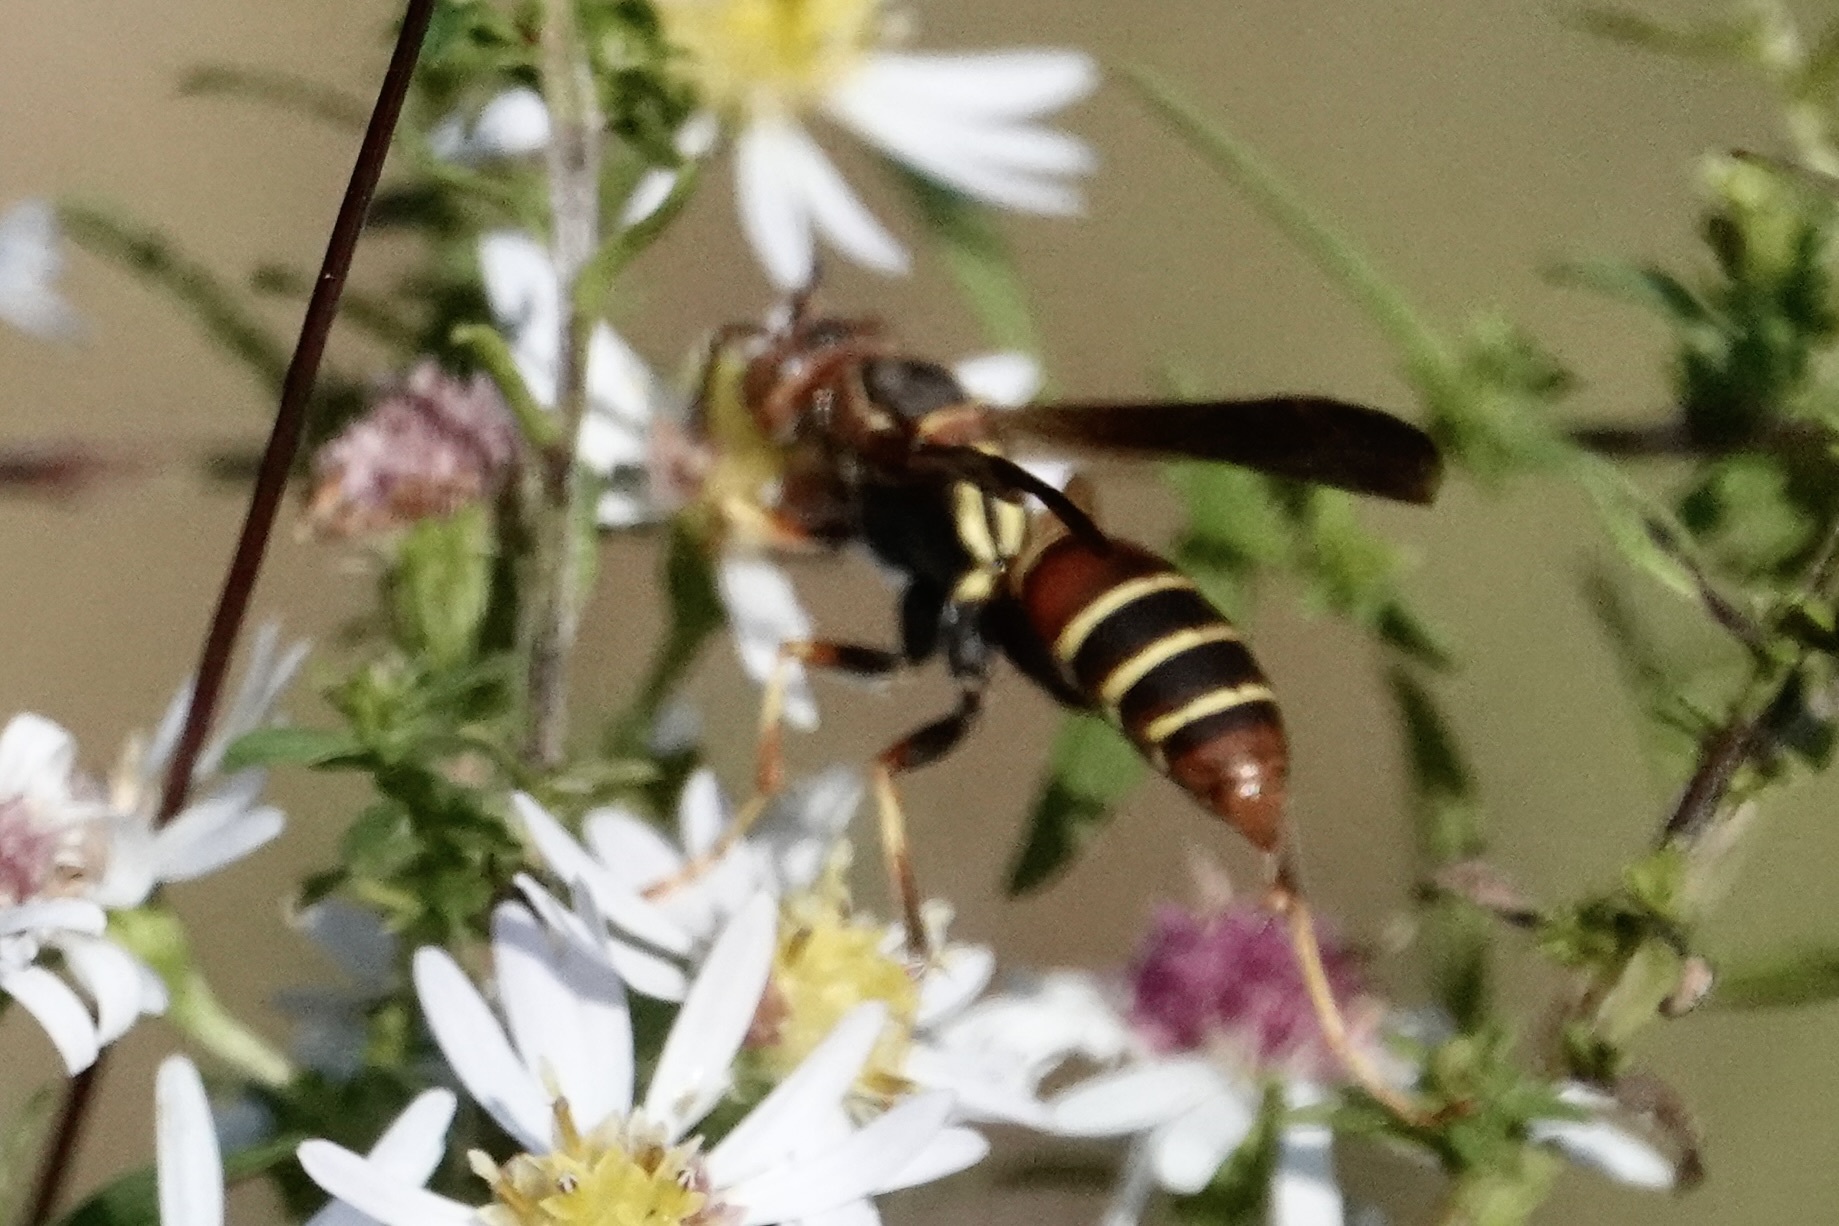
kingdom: Animalia
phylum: Arthropoda
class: Insecta
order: Hymenoptera
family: Eumenidae
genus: Polistes
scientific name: Polistes dorsalis
